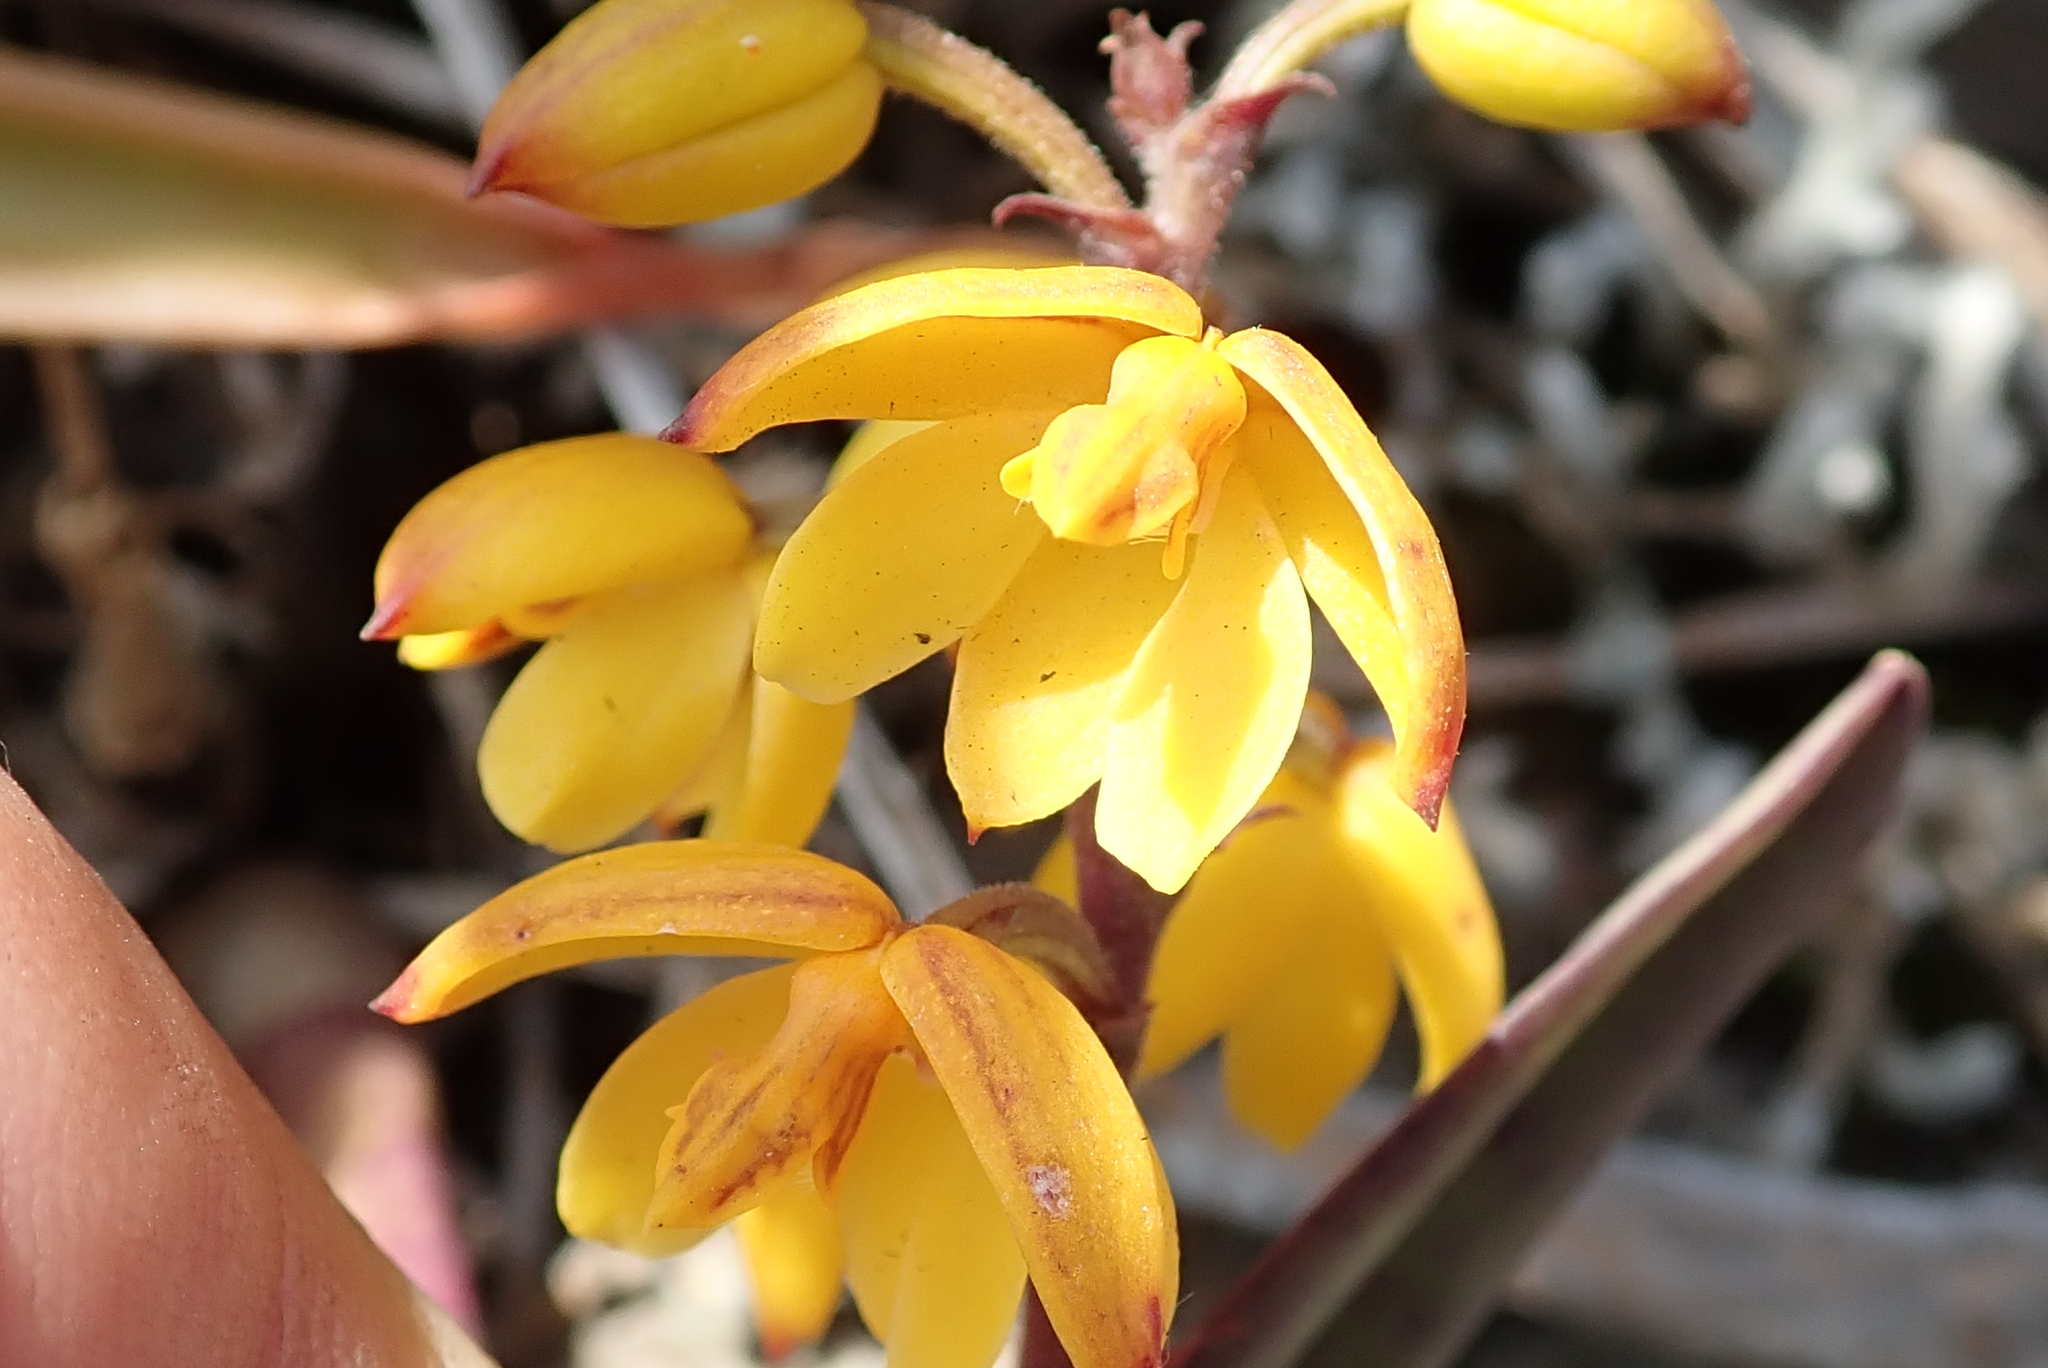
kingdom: Plantae
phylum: Tracheophyta
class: Liliopsida
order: Asparagales
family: Orchidaceae
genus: Polystachya
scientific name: Polystachya pubescens
